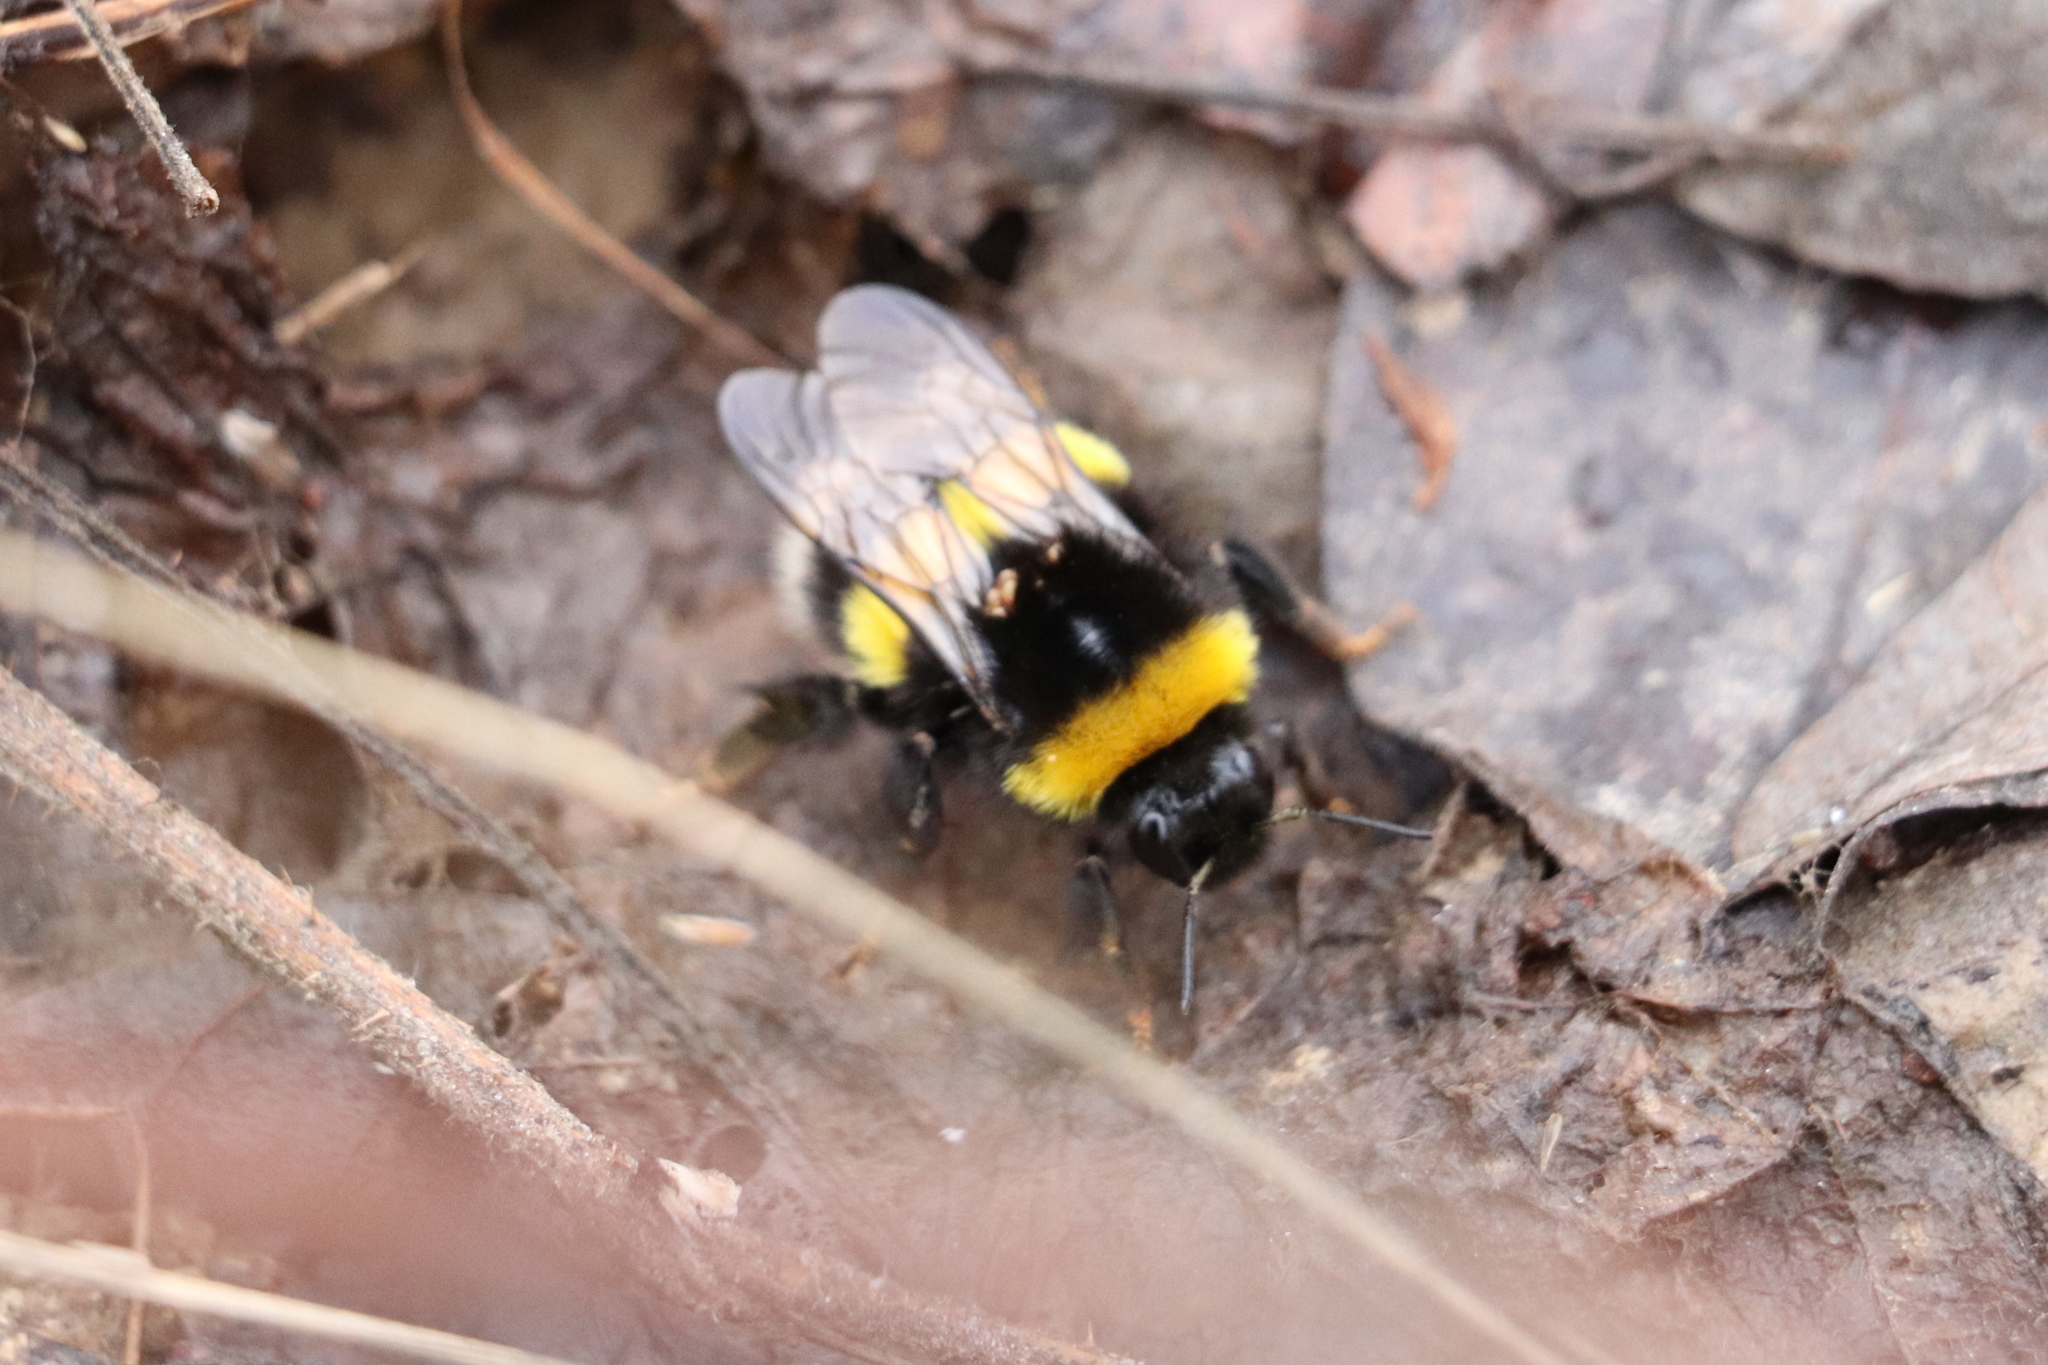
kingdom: Animalia
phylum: Arthropoda
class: Insecta
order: Hymenoptera
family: Apidae
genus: Bombus
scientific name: Bombus lucorum
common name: White-tailed bumblebee
